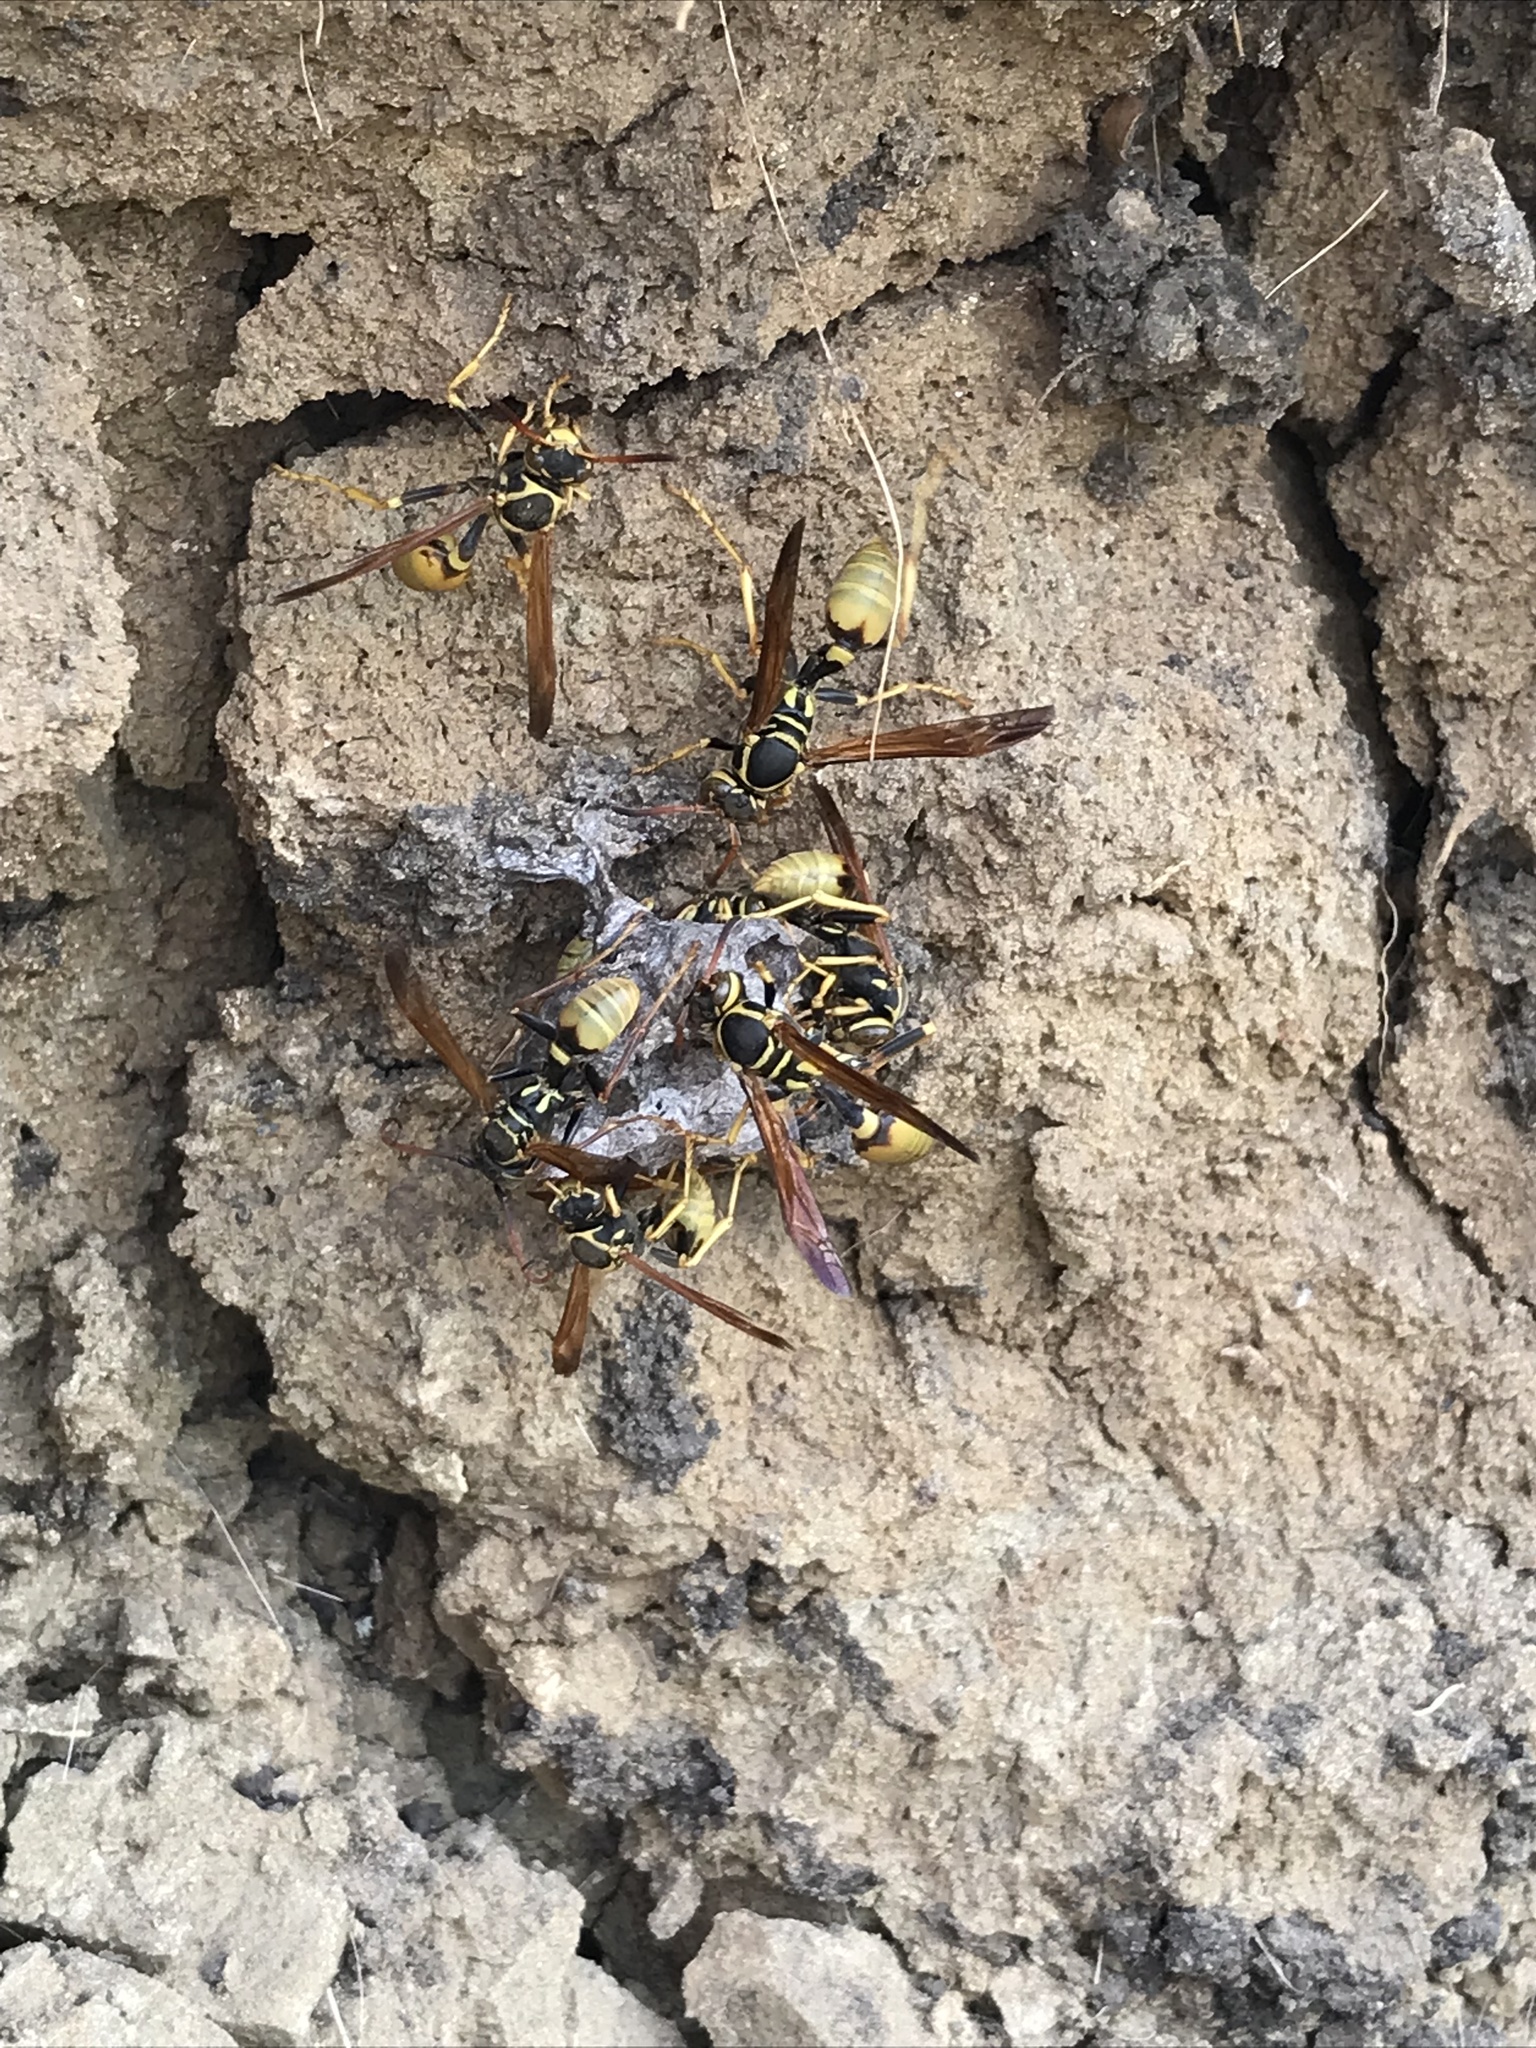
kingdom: Animalia
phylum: Arthropoda
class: Insecta
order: Hymenoptera
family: Vespidae
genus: Mischocyttarus
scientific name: Mischocyttarus flavitarsis
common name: Wasp
